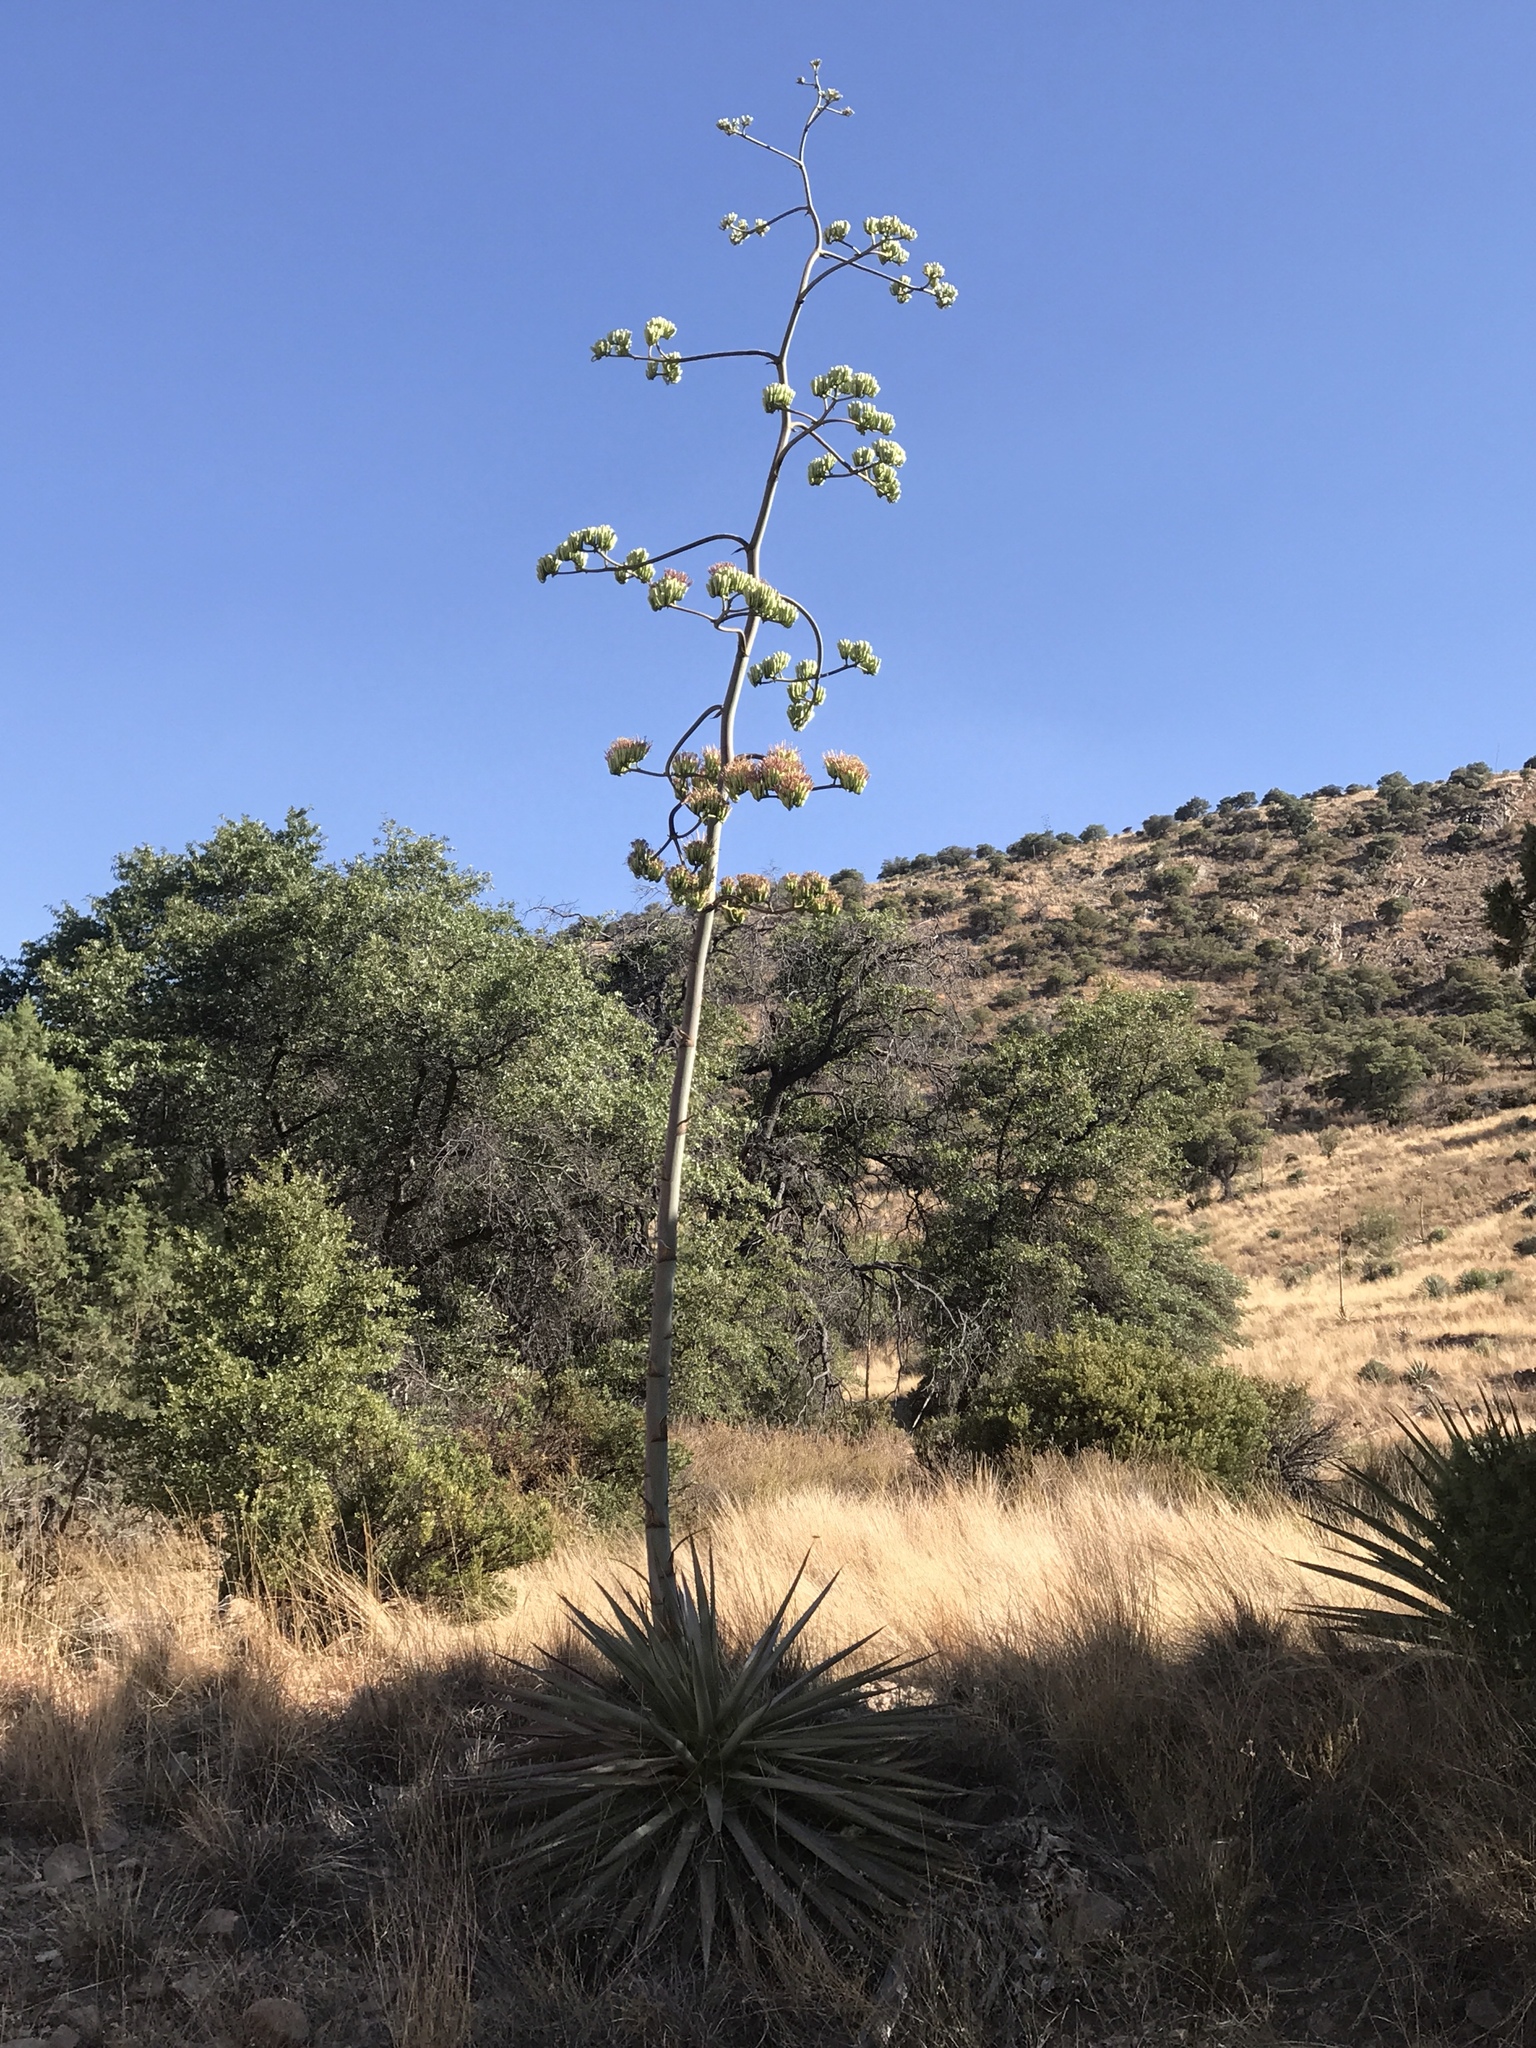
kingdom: Plantae
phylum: Tracheophyta
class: Liliopsida
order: Asparagales
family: Asparagaceae
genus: Agave
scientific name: Agave palmeri
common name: Palmer agave
